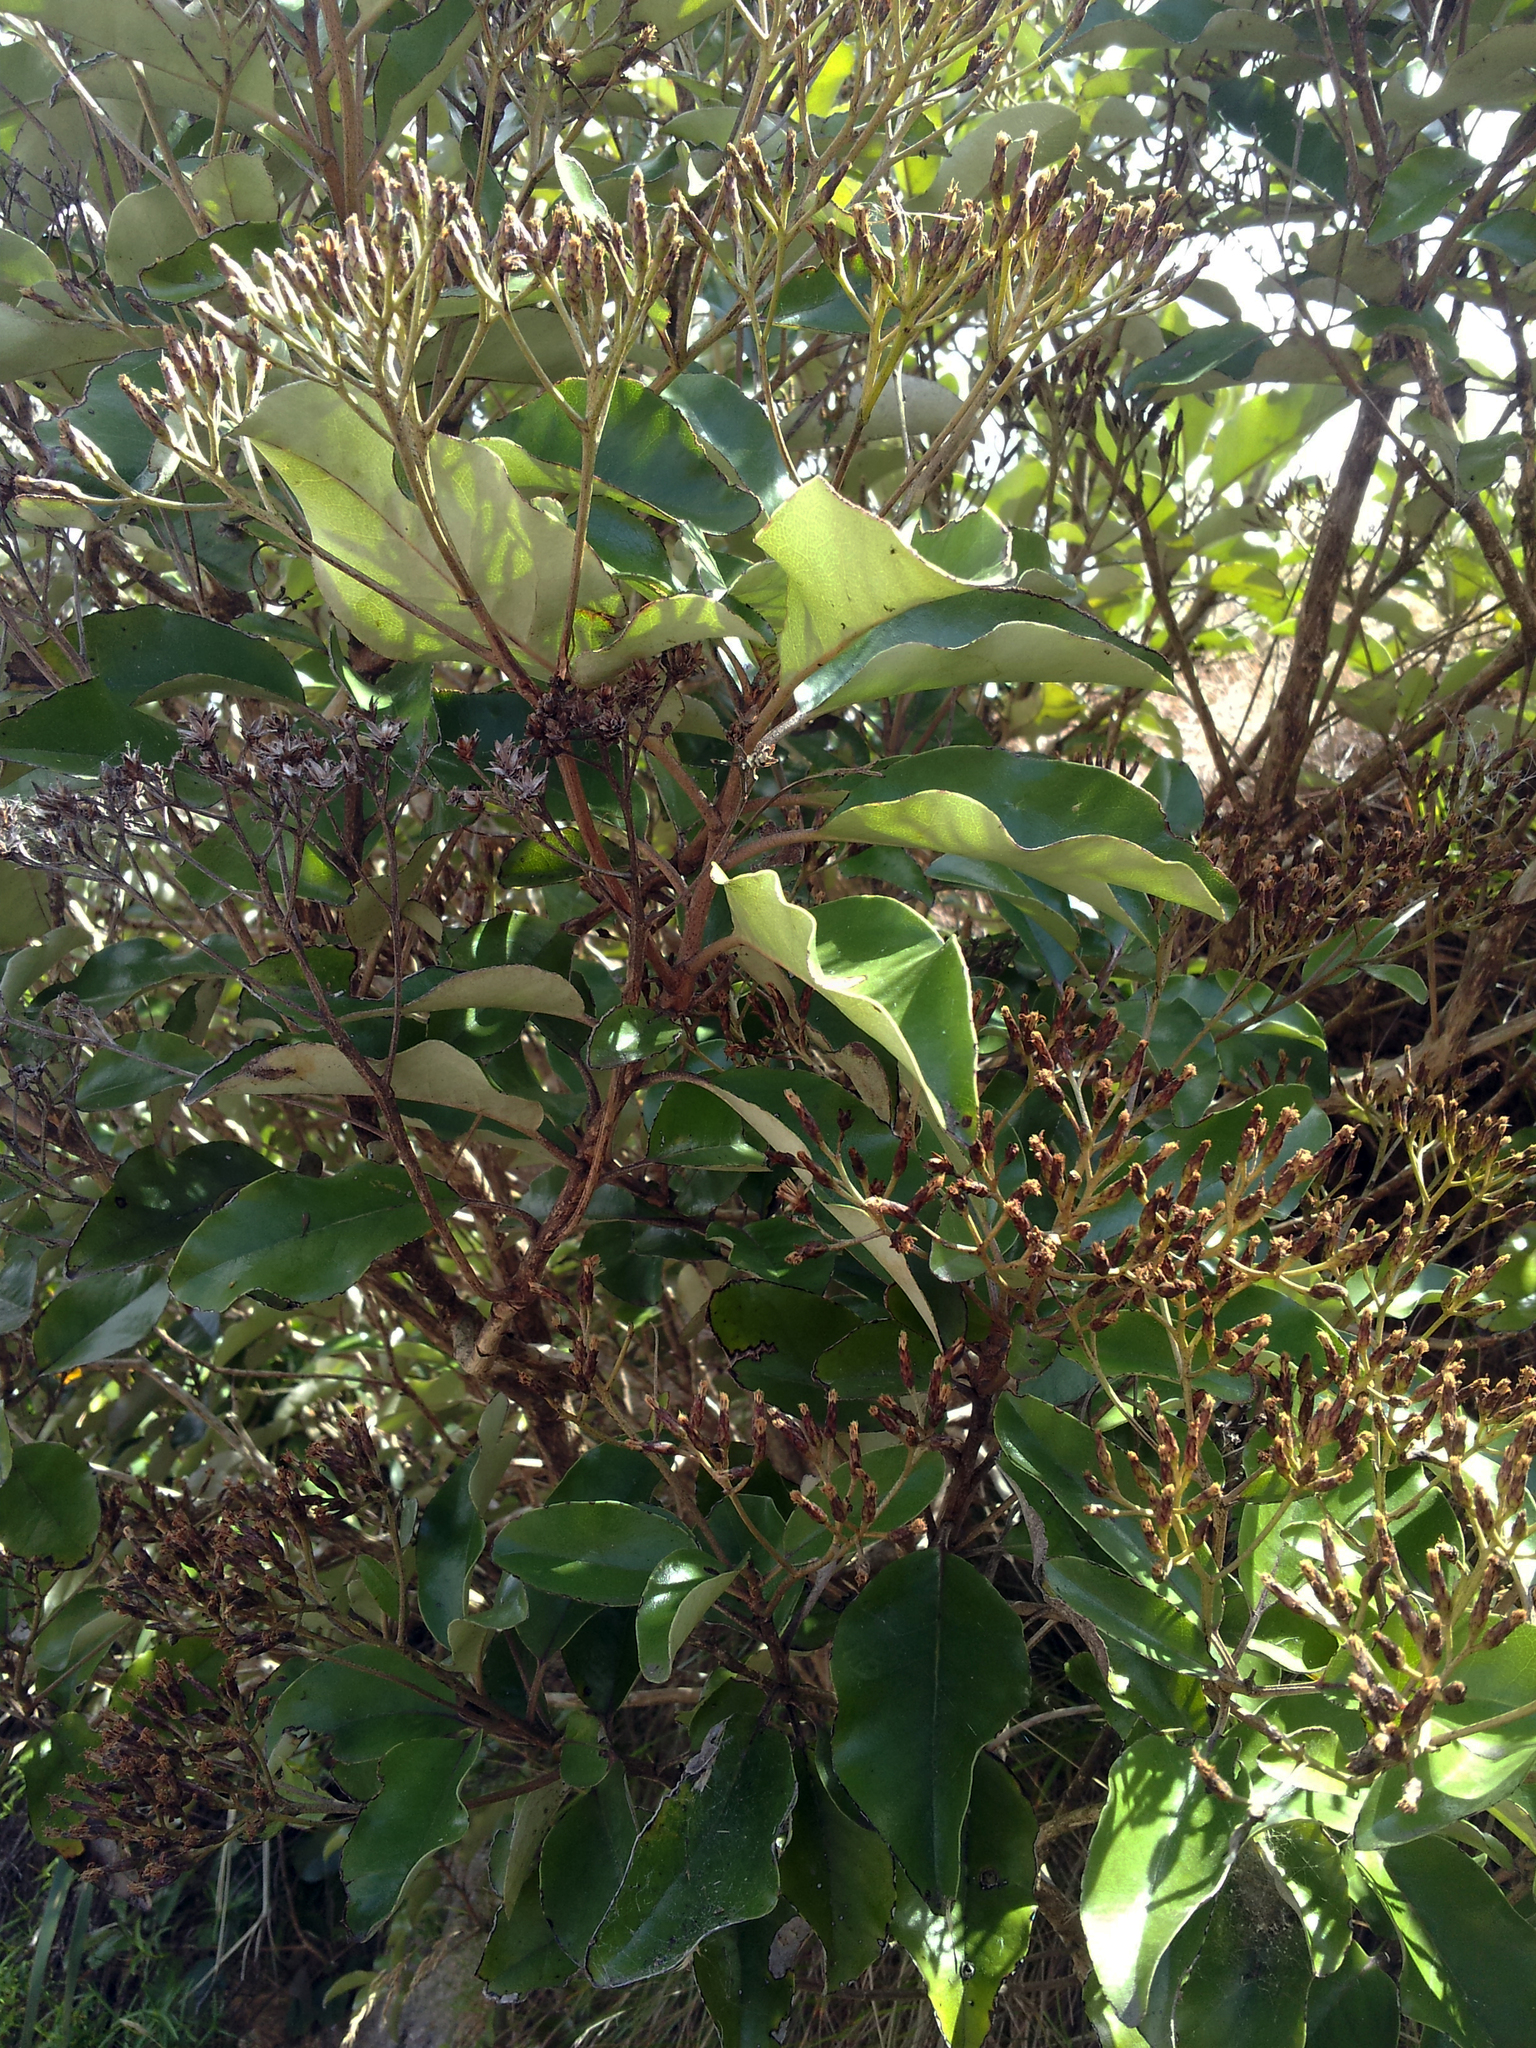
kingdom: Plantae
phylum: Tracheophyta
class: Magnoliopsida
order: Asterales
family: Asteraceae
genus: Olearia
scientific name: Olearia furfuracea
